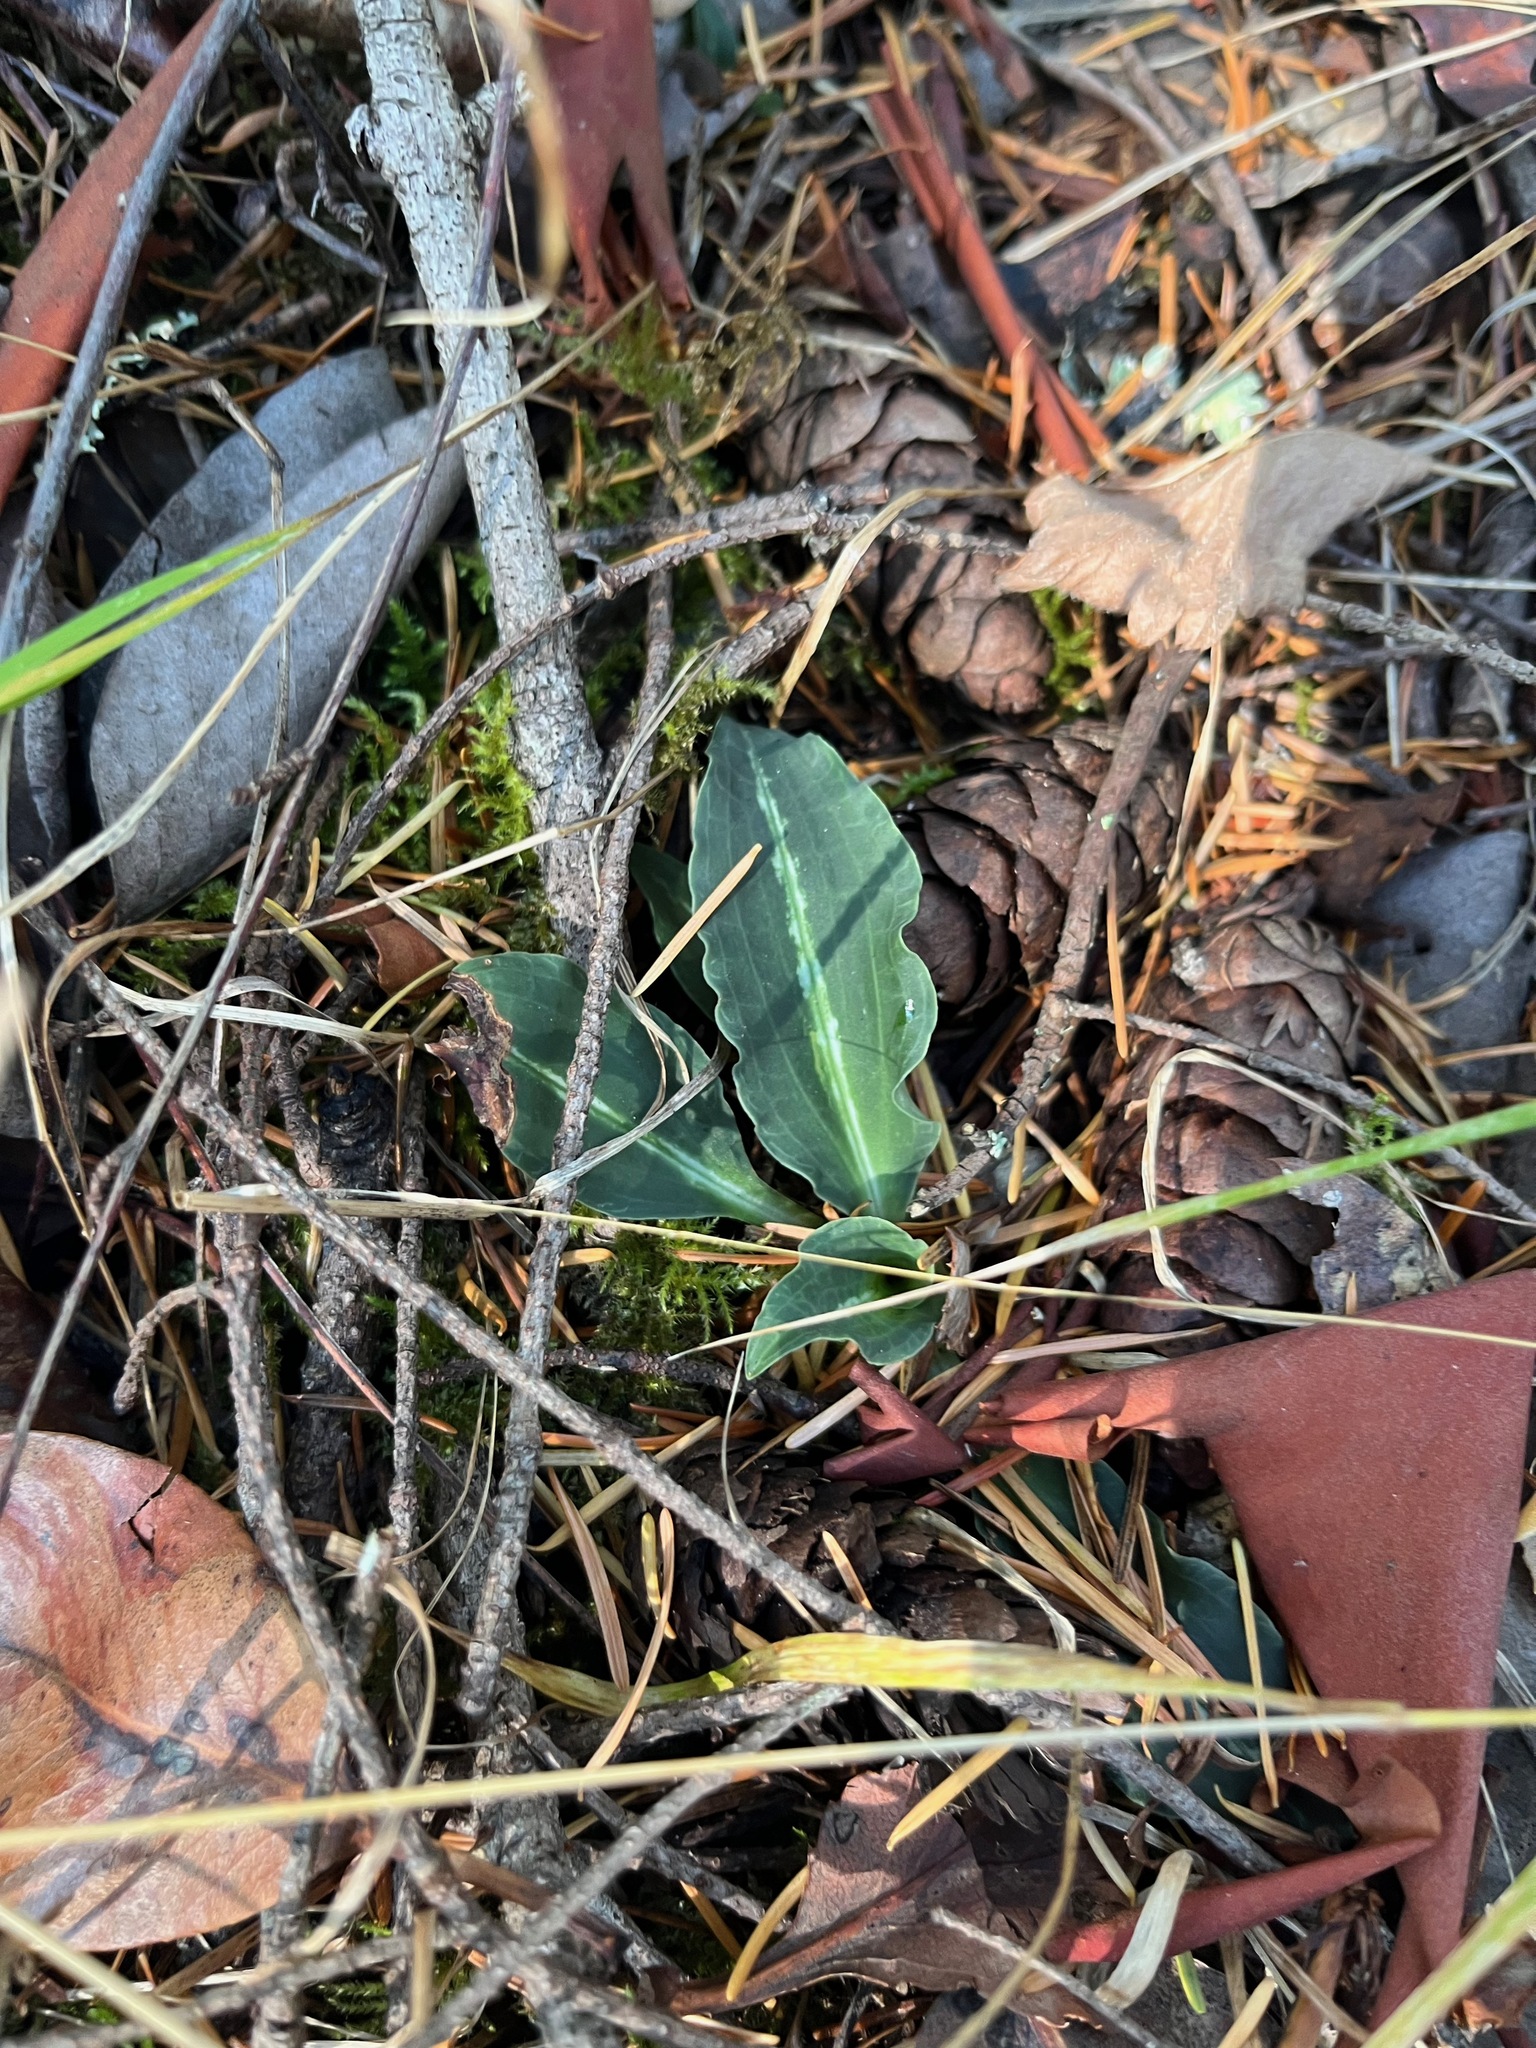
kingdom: Plantae
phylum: Tracheophyta
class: Liliopsida
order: Asparagales
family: Orchidaceae
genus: Goodyera
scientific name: Goodyera oblongifolia
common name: Giant rattlesnake-plantain
